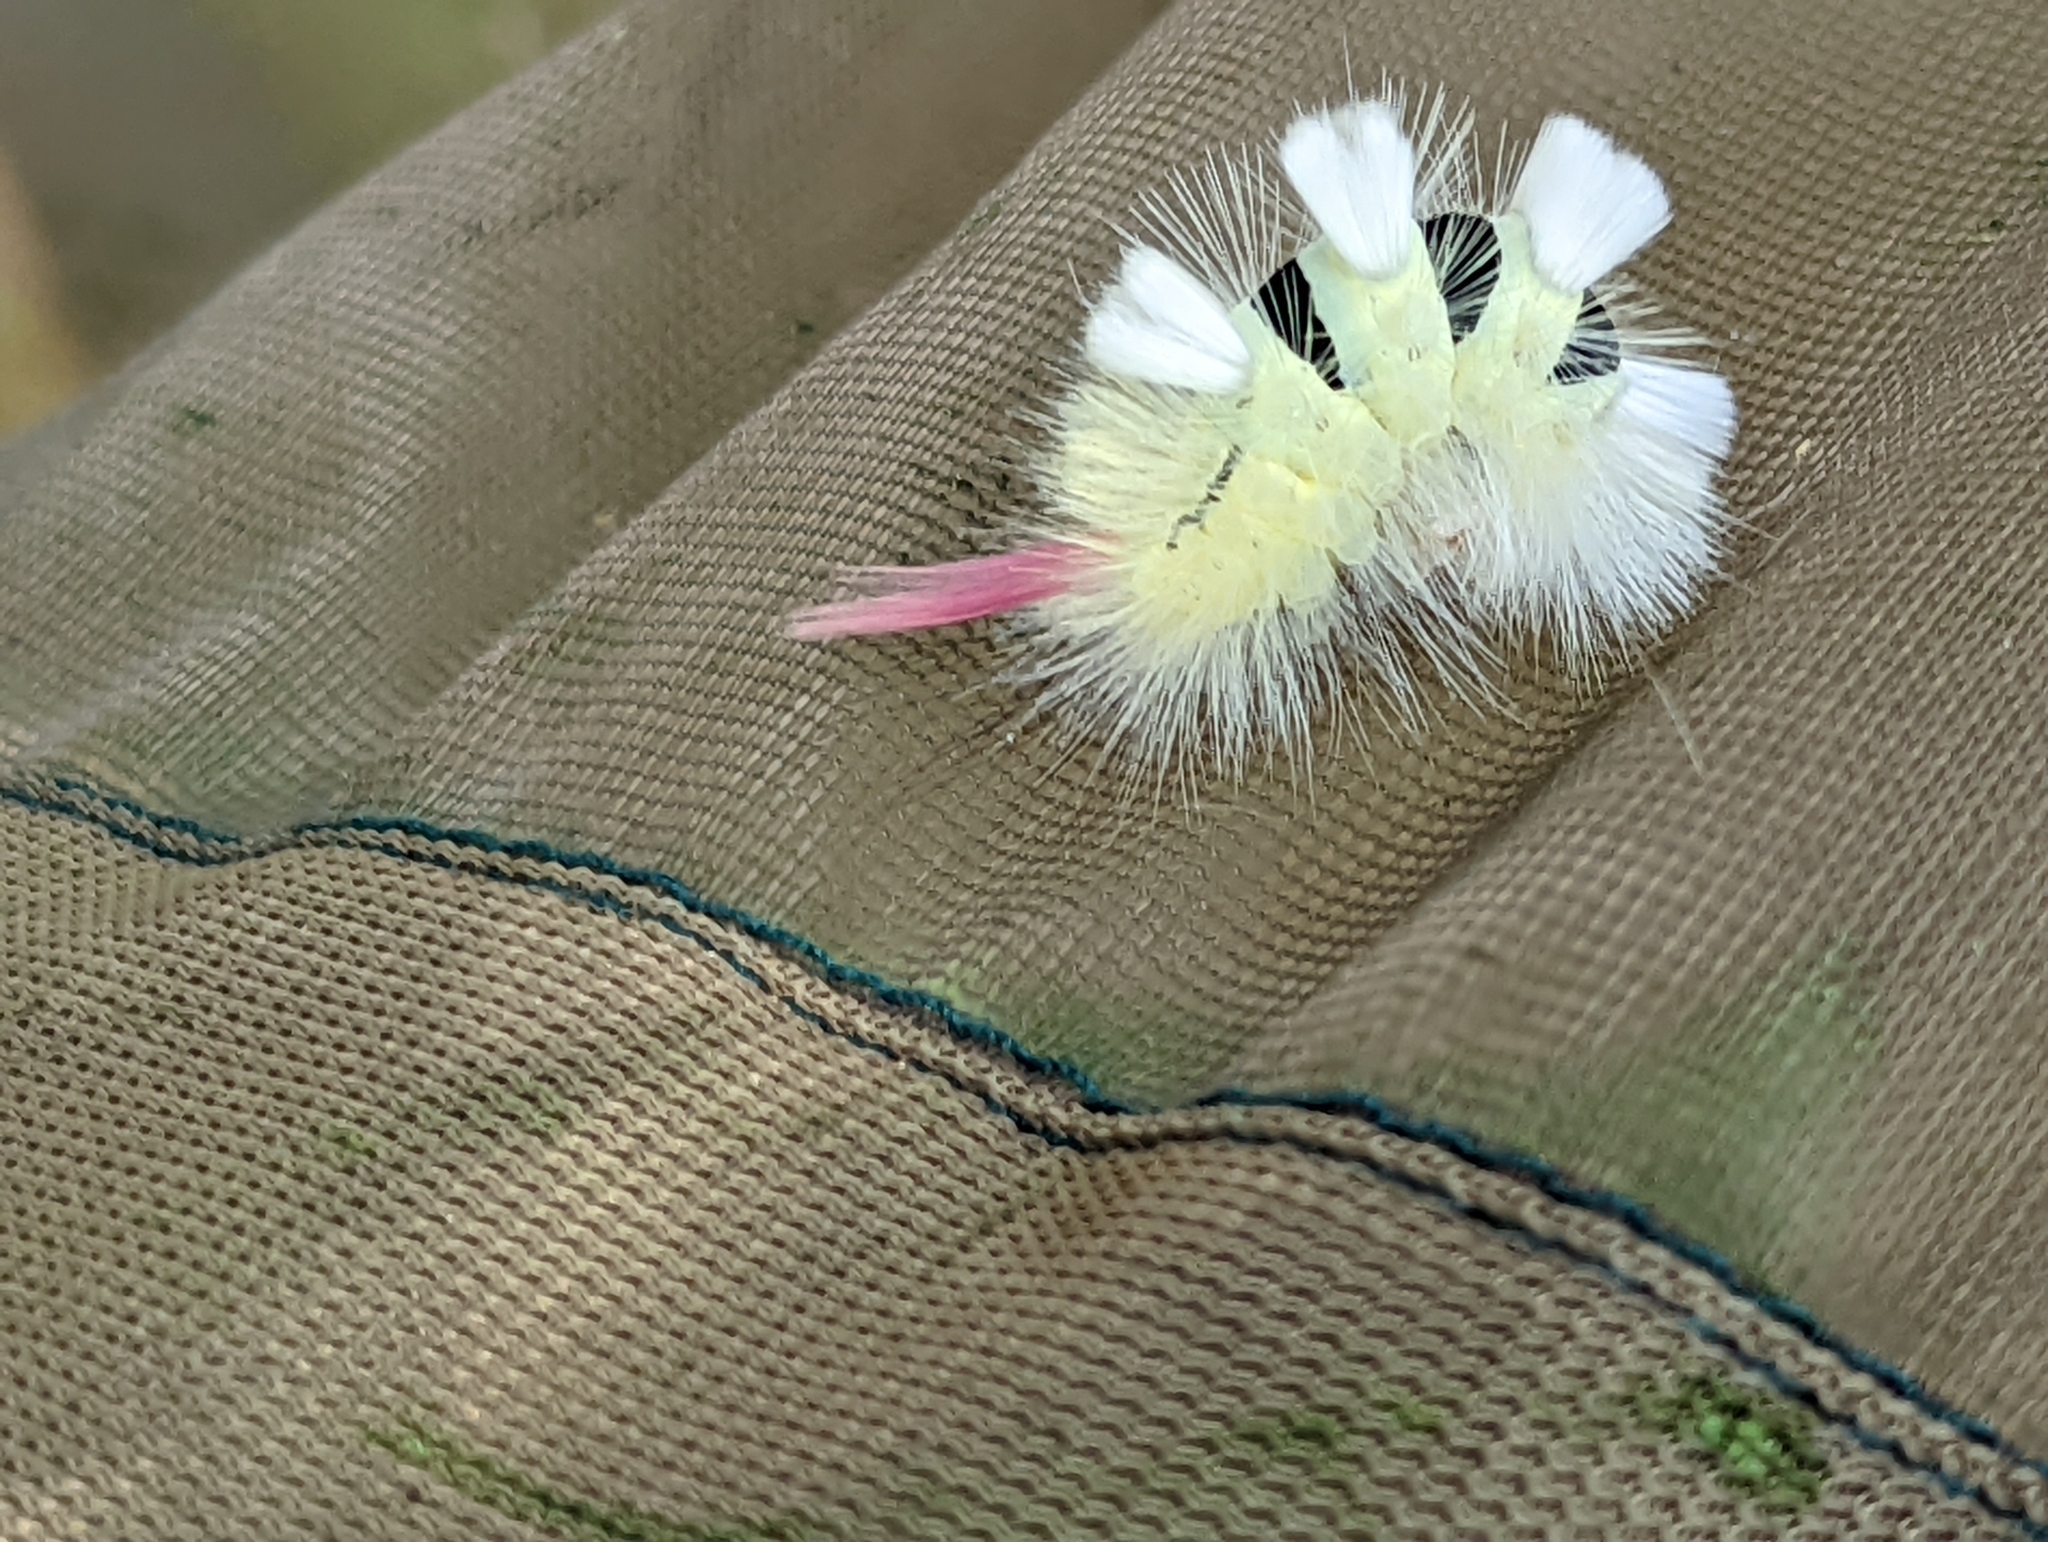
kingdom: Animalia
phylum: Arthropoda
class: Insecta
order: Lepidoptera
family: Erebidae
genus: Calliteara
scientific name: Calliteara pudibunda
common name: Pale tussock
